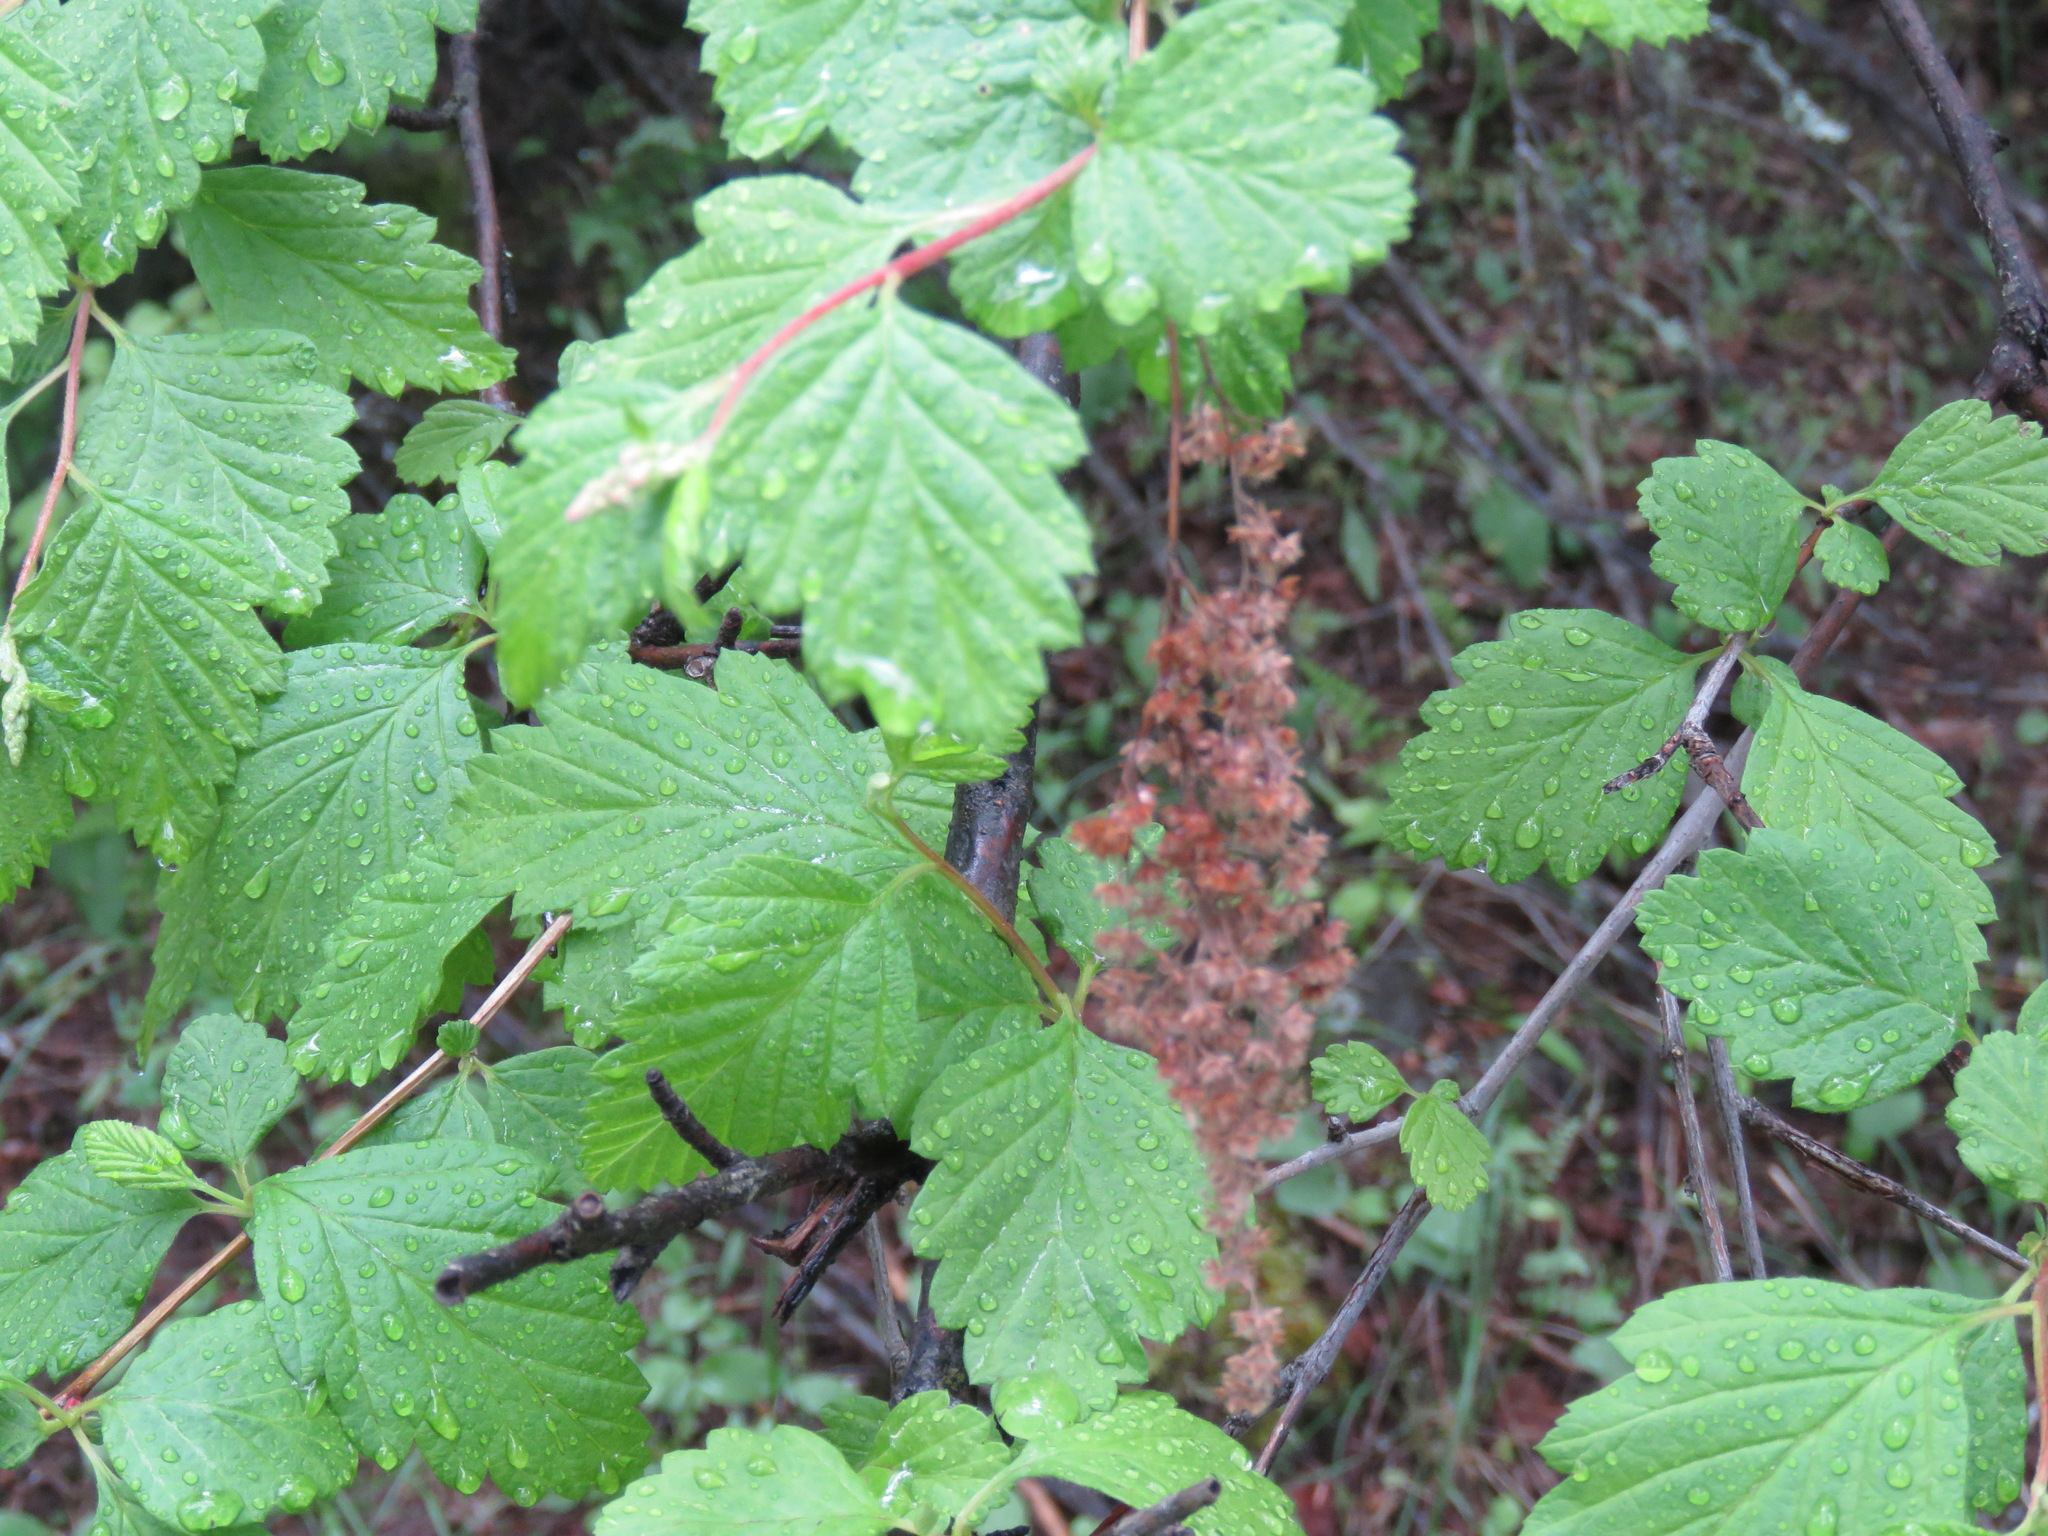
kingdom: Plantae
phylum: Tracheophyta
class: Magnoliopsida
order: Rosales
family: Rosaceae
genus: Holodiscus
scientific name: Holodiscus discolor
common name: Oceanspray
